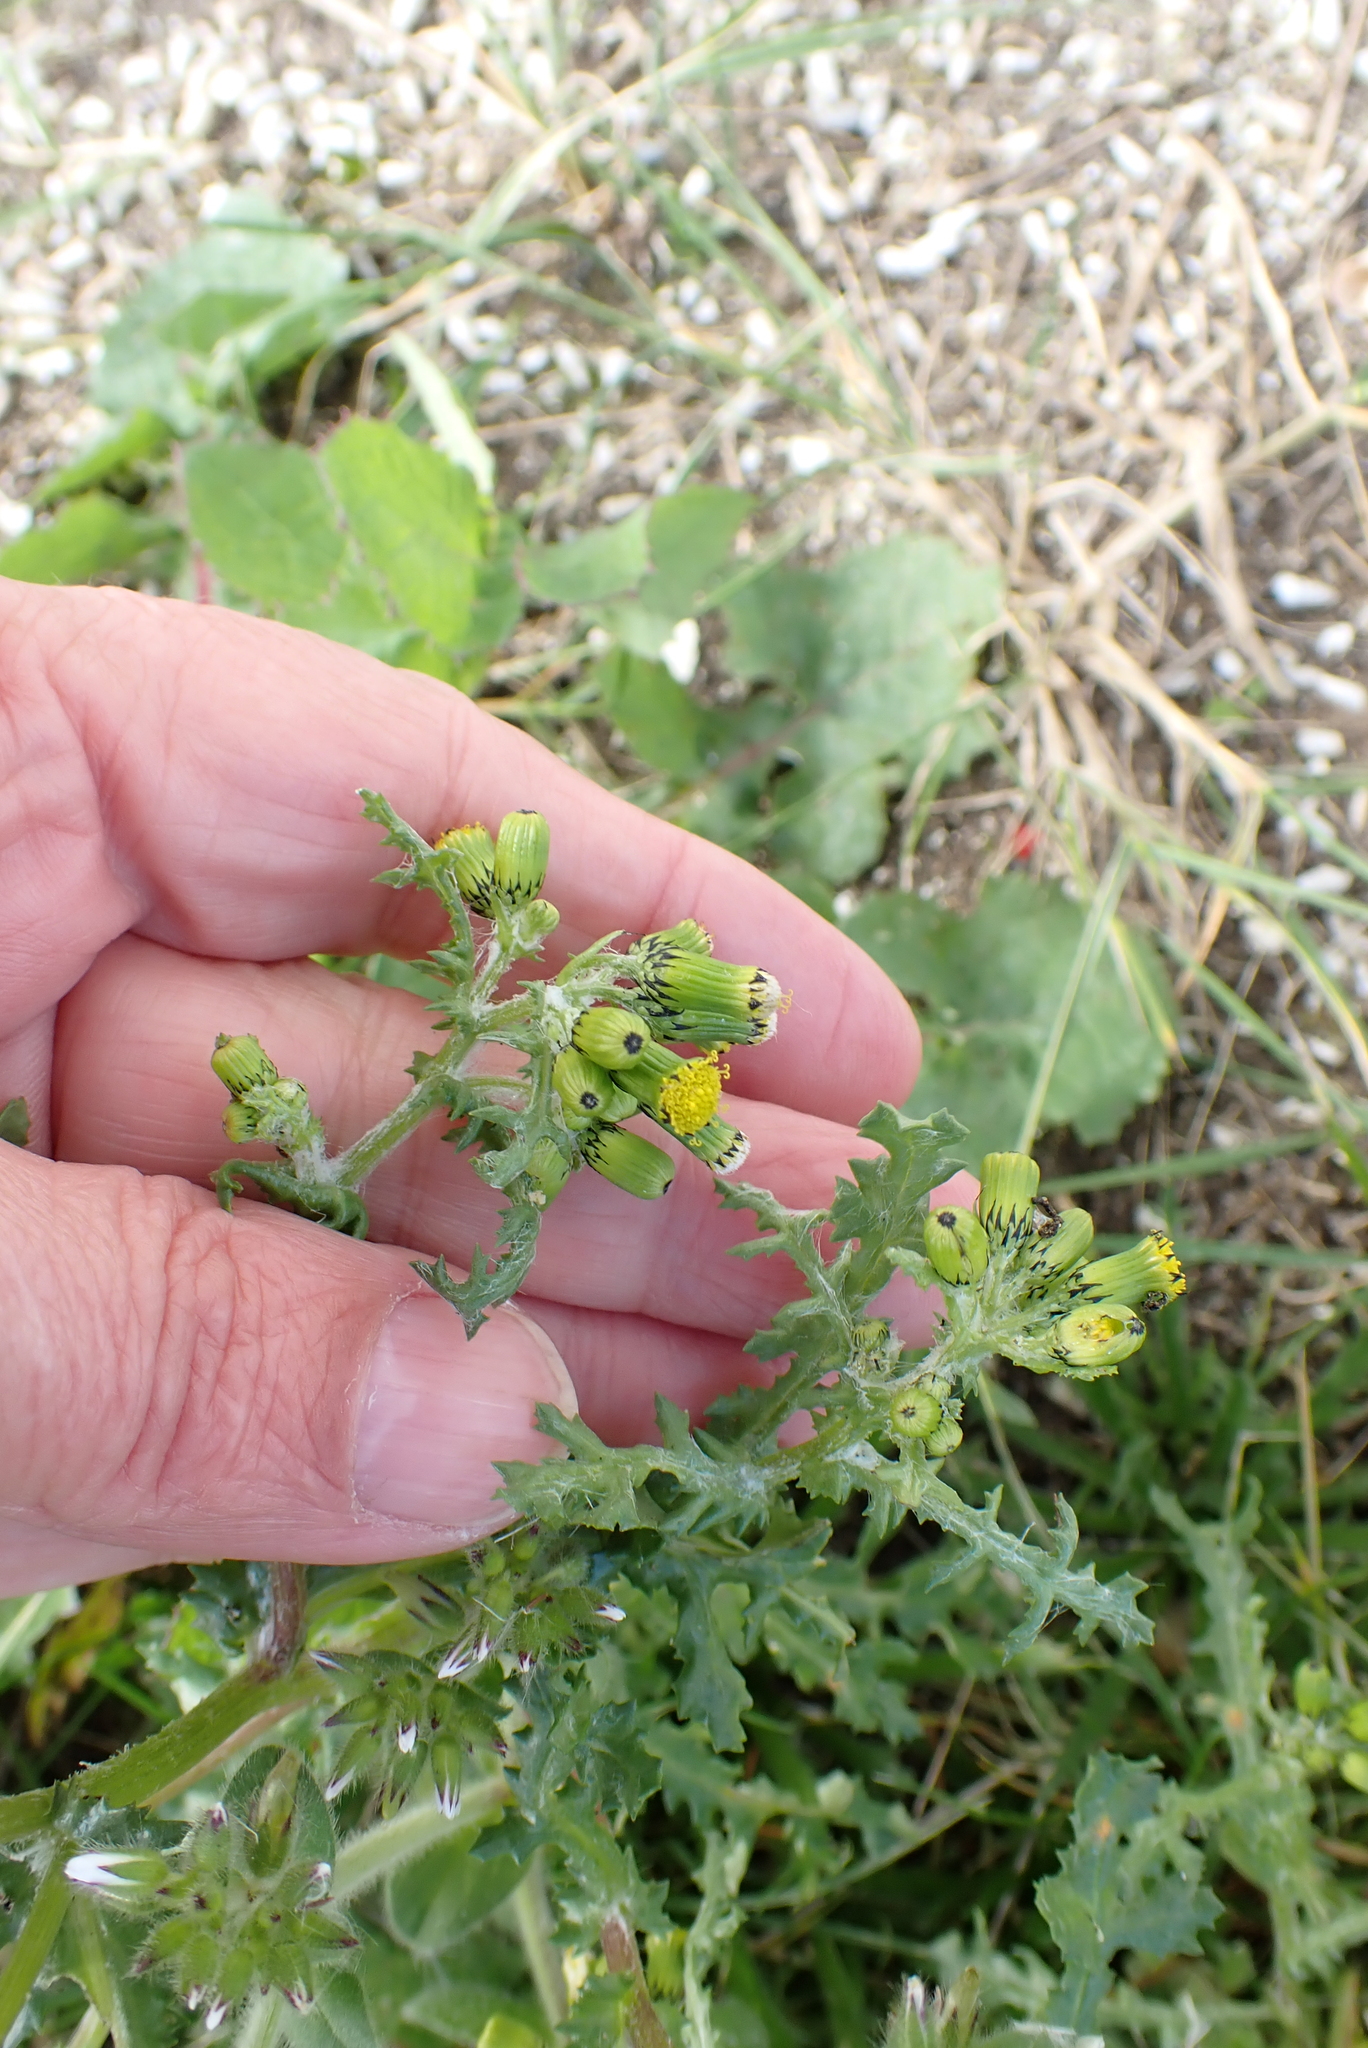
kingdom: Plantae
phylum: Tracheophyta
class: Magnoliopsida
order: Asterales
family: Asteraceae
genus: Senecio
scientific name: Senecio vulgaris
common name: Old-man-in-the-spring
